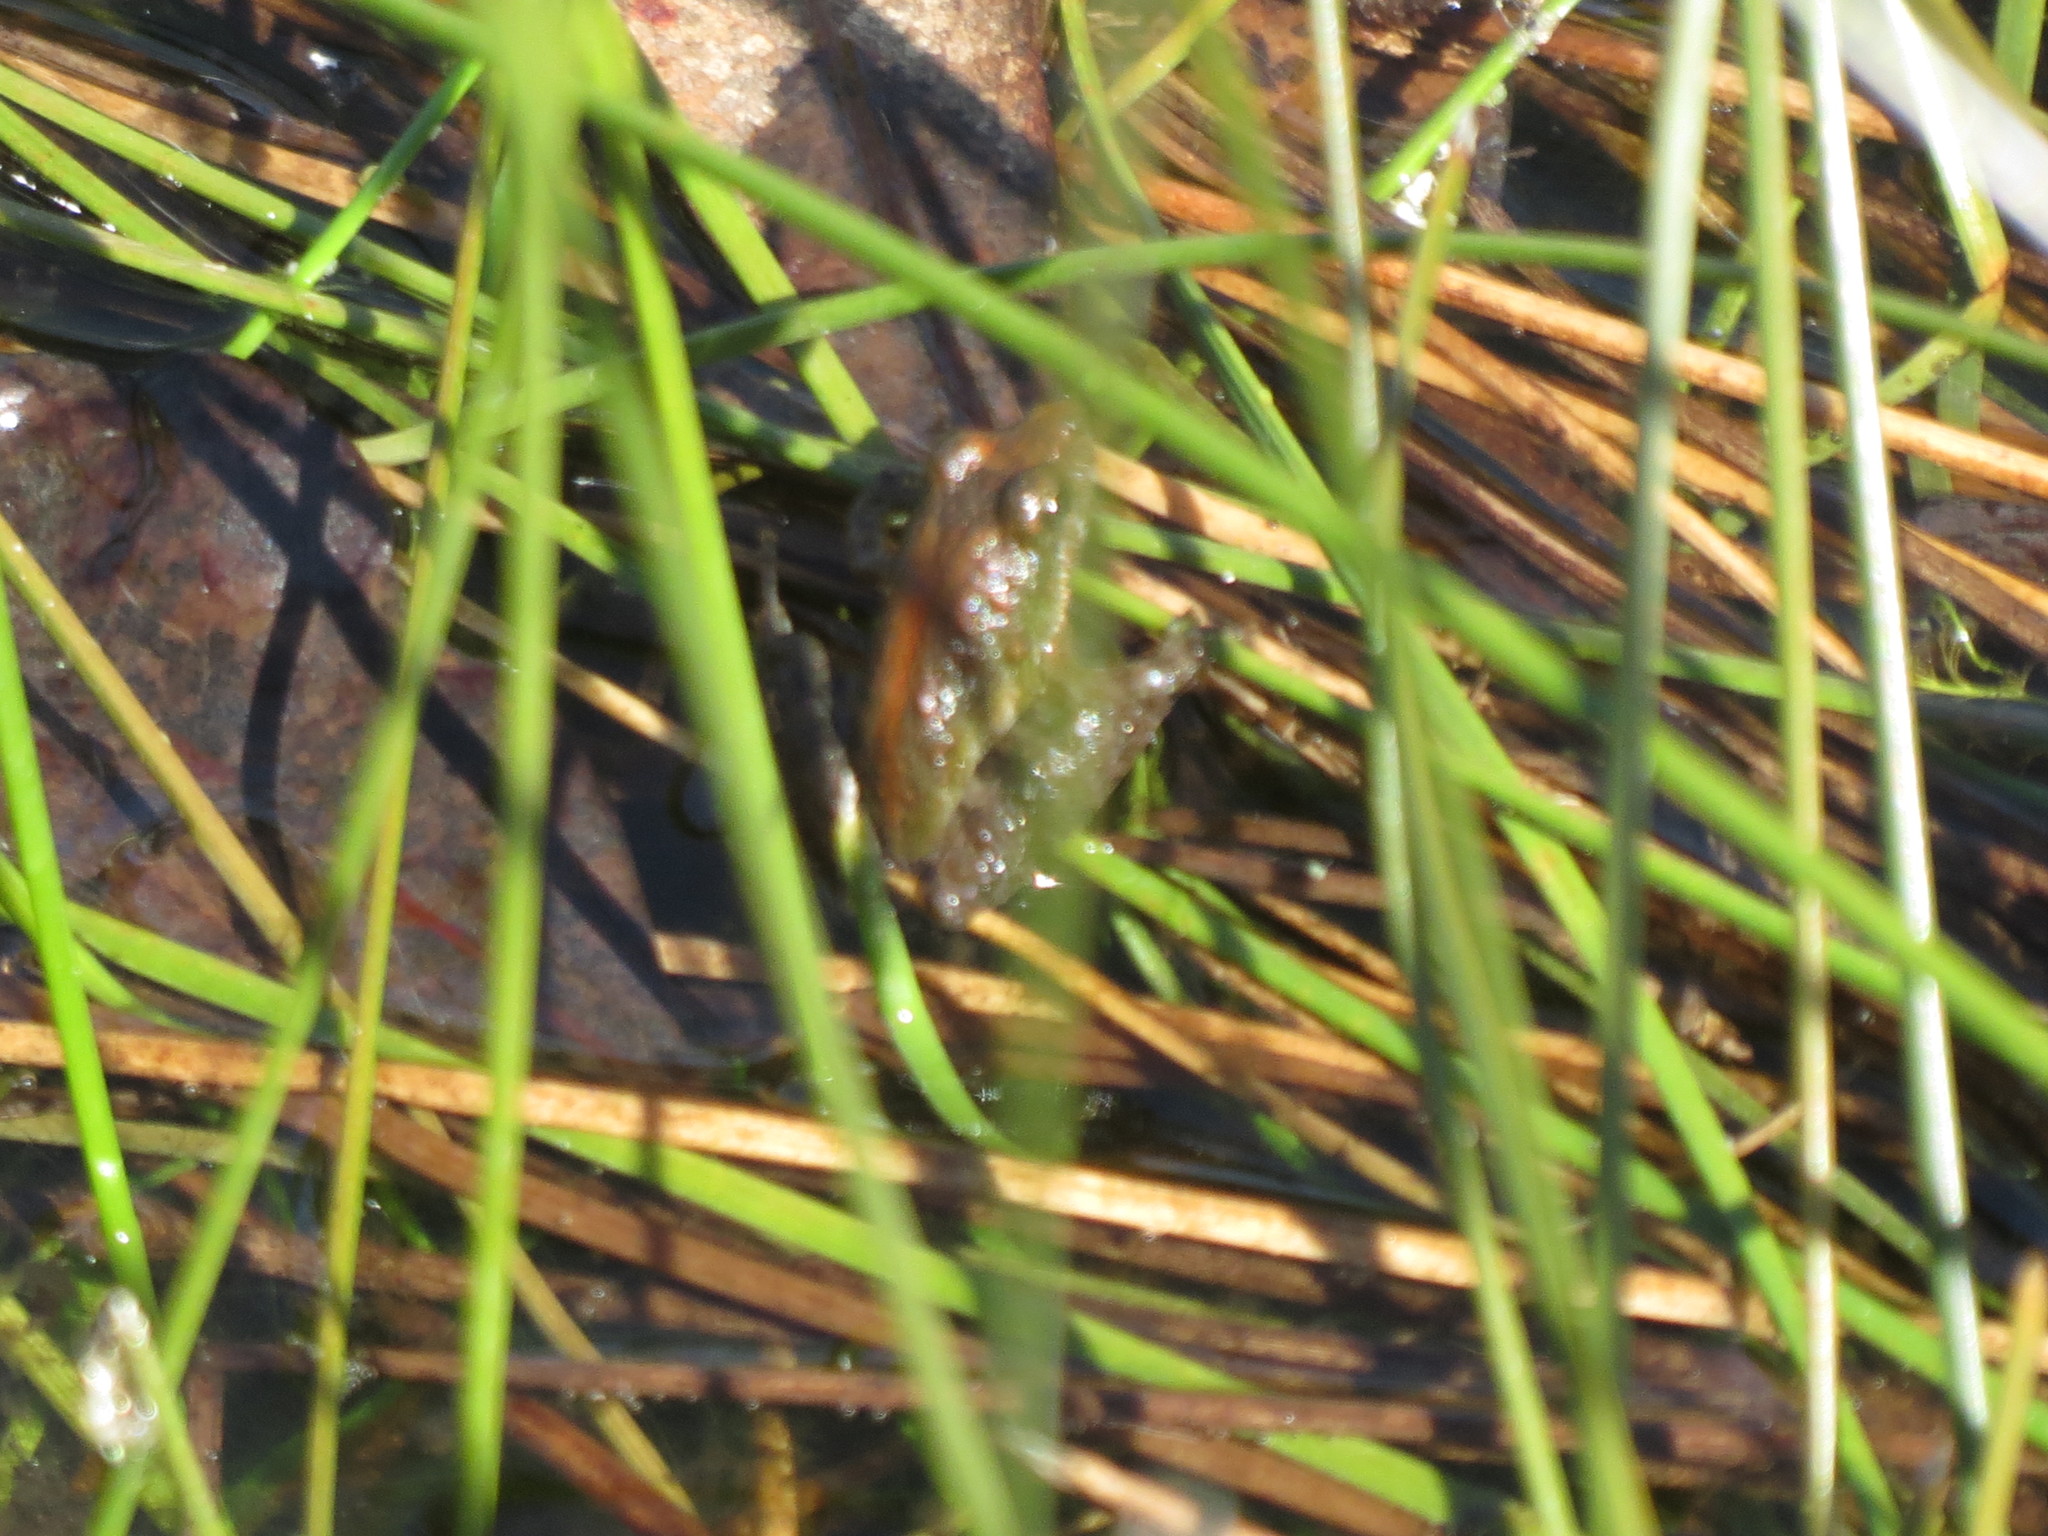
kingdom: Animalia
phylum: Chordata
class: Amphibia
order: Anura
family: Hylidae
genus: Acris
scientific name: Acris gryllus
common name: Southern cricket frog
